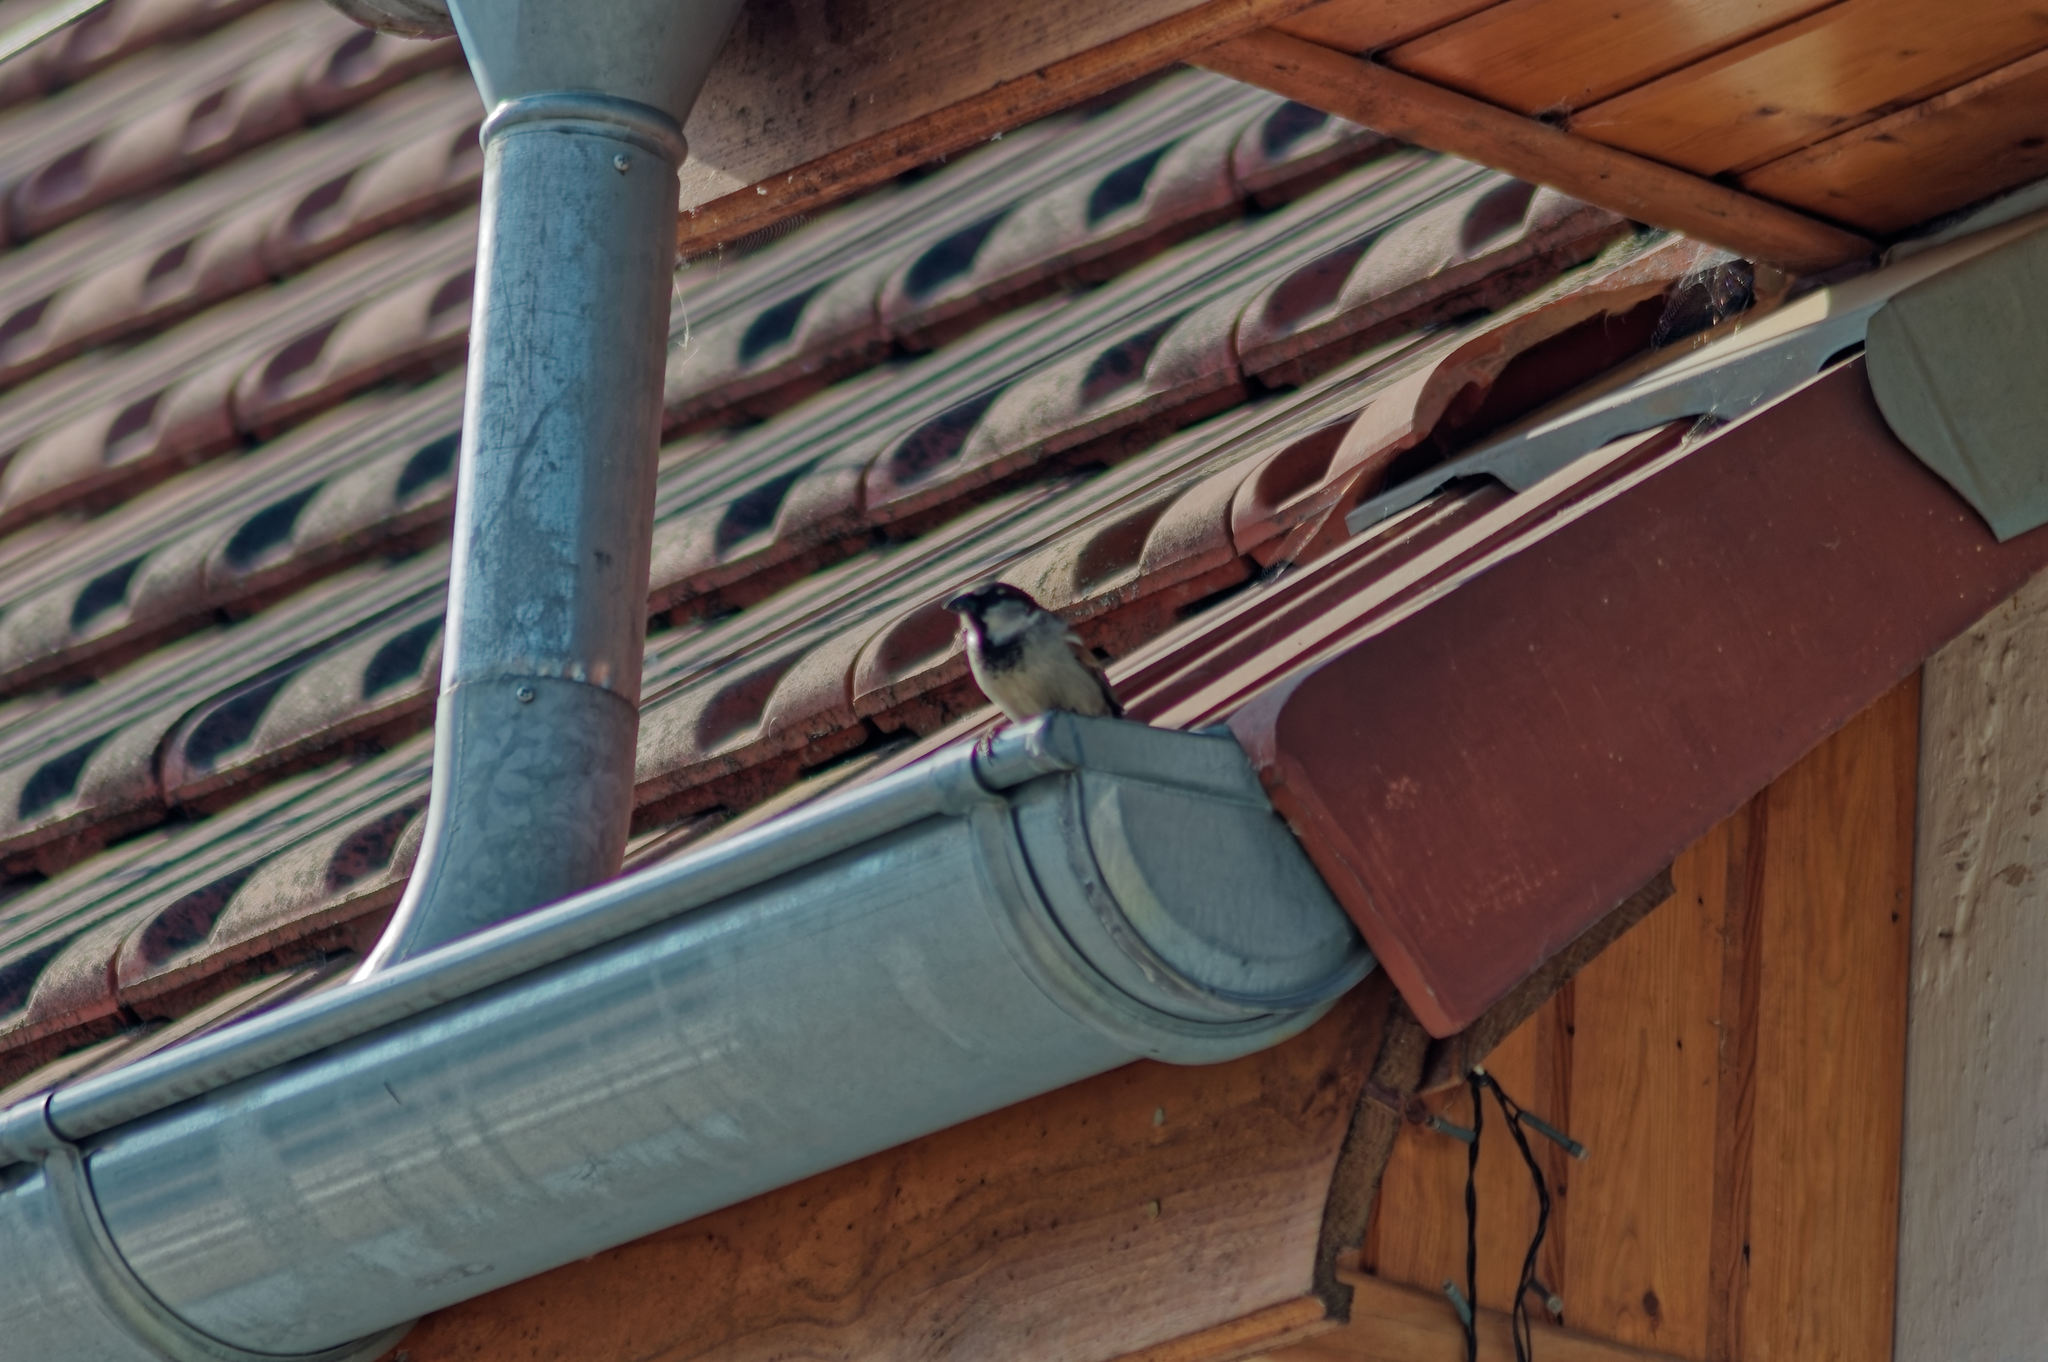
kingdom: Animalia
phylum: Chordata
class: Aves
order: Passeriformes
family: Passeridae
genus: Passer
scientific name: Passer domesticus
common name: House sparrow
